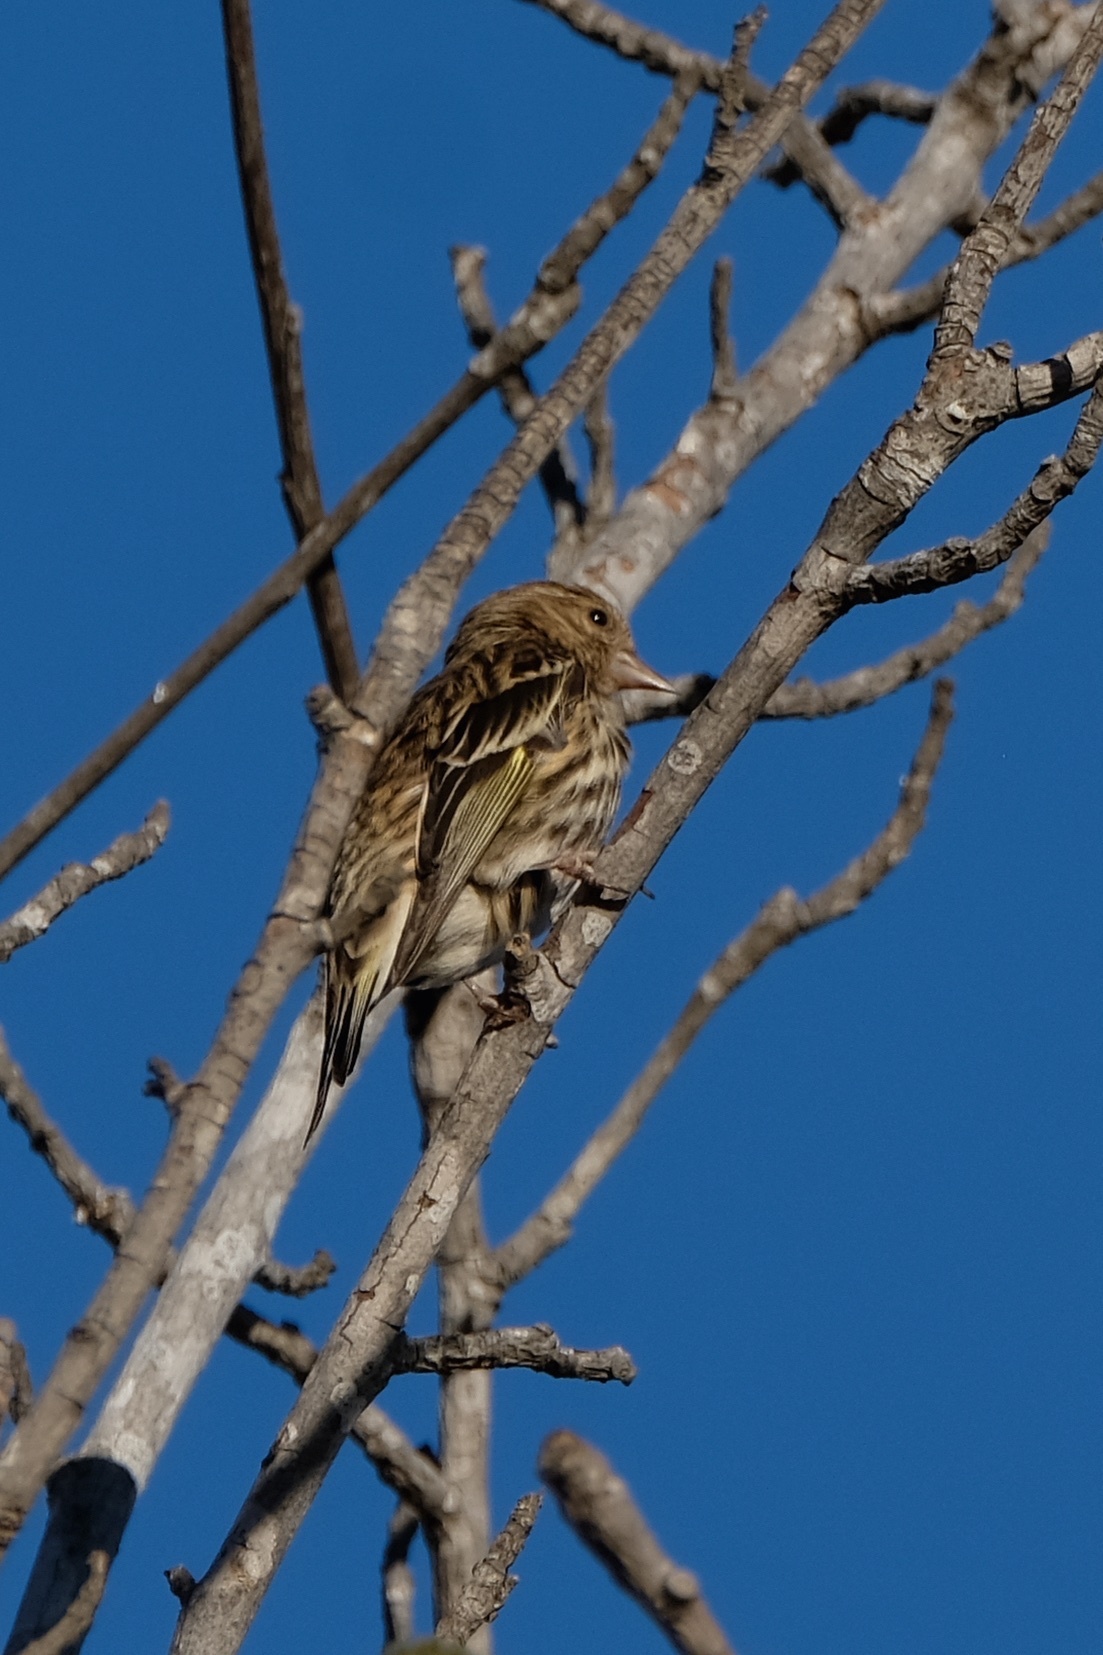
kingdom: Animalia
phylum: Chordata
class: Aves
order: Passeriformes
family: Fringillidae
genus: Spinus
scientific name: Spinus pinus
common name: Pine siskin
